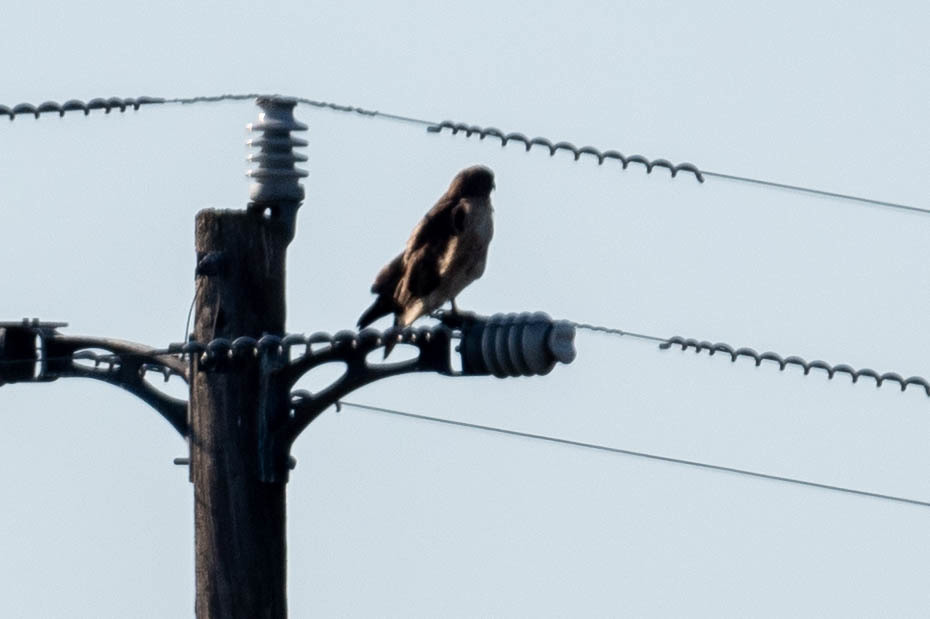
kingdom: Animalia
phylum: Chordata
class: Aves
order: Accipitriformes
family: Accipitridae
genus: Buteo
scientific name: Buteo jamaicensis
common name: Red-tailed hawk
